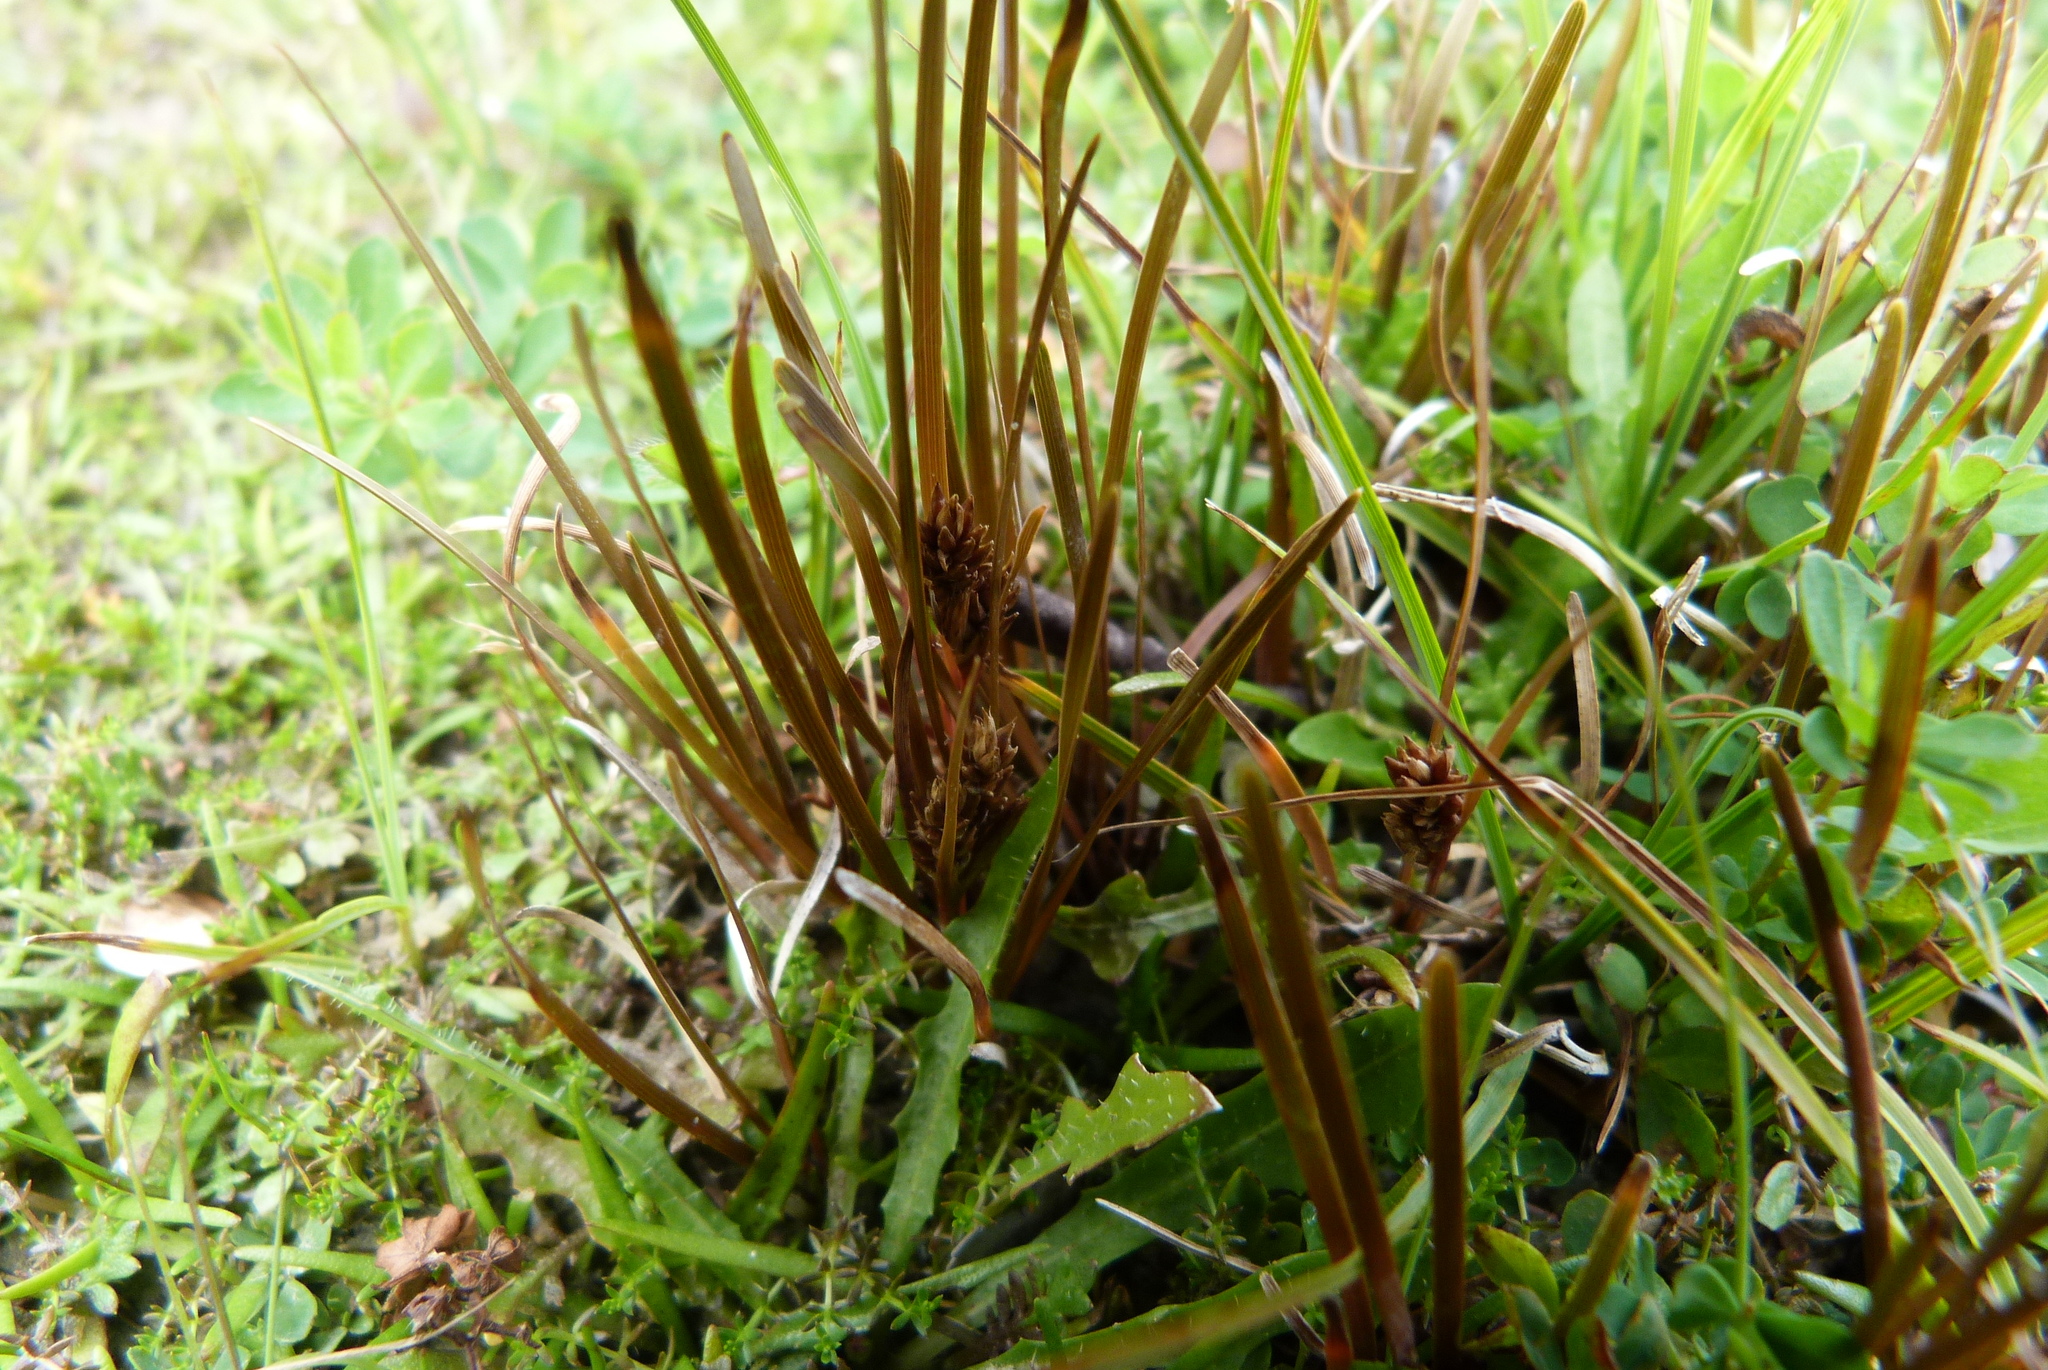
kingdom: Plantae
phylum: Tracheophyta
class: Liliopsida
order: Poales
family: Cyperaceae
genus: Carex
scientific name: Carex talbotii
